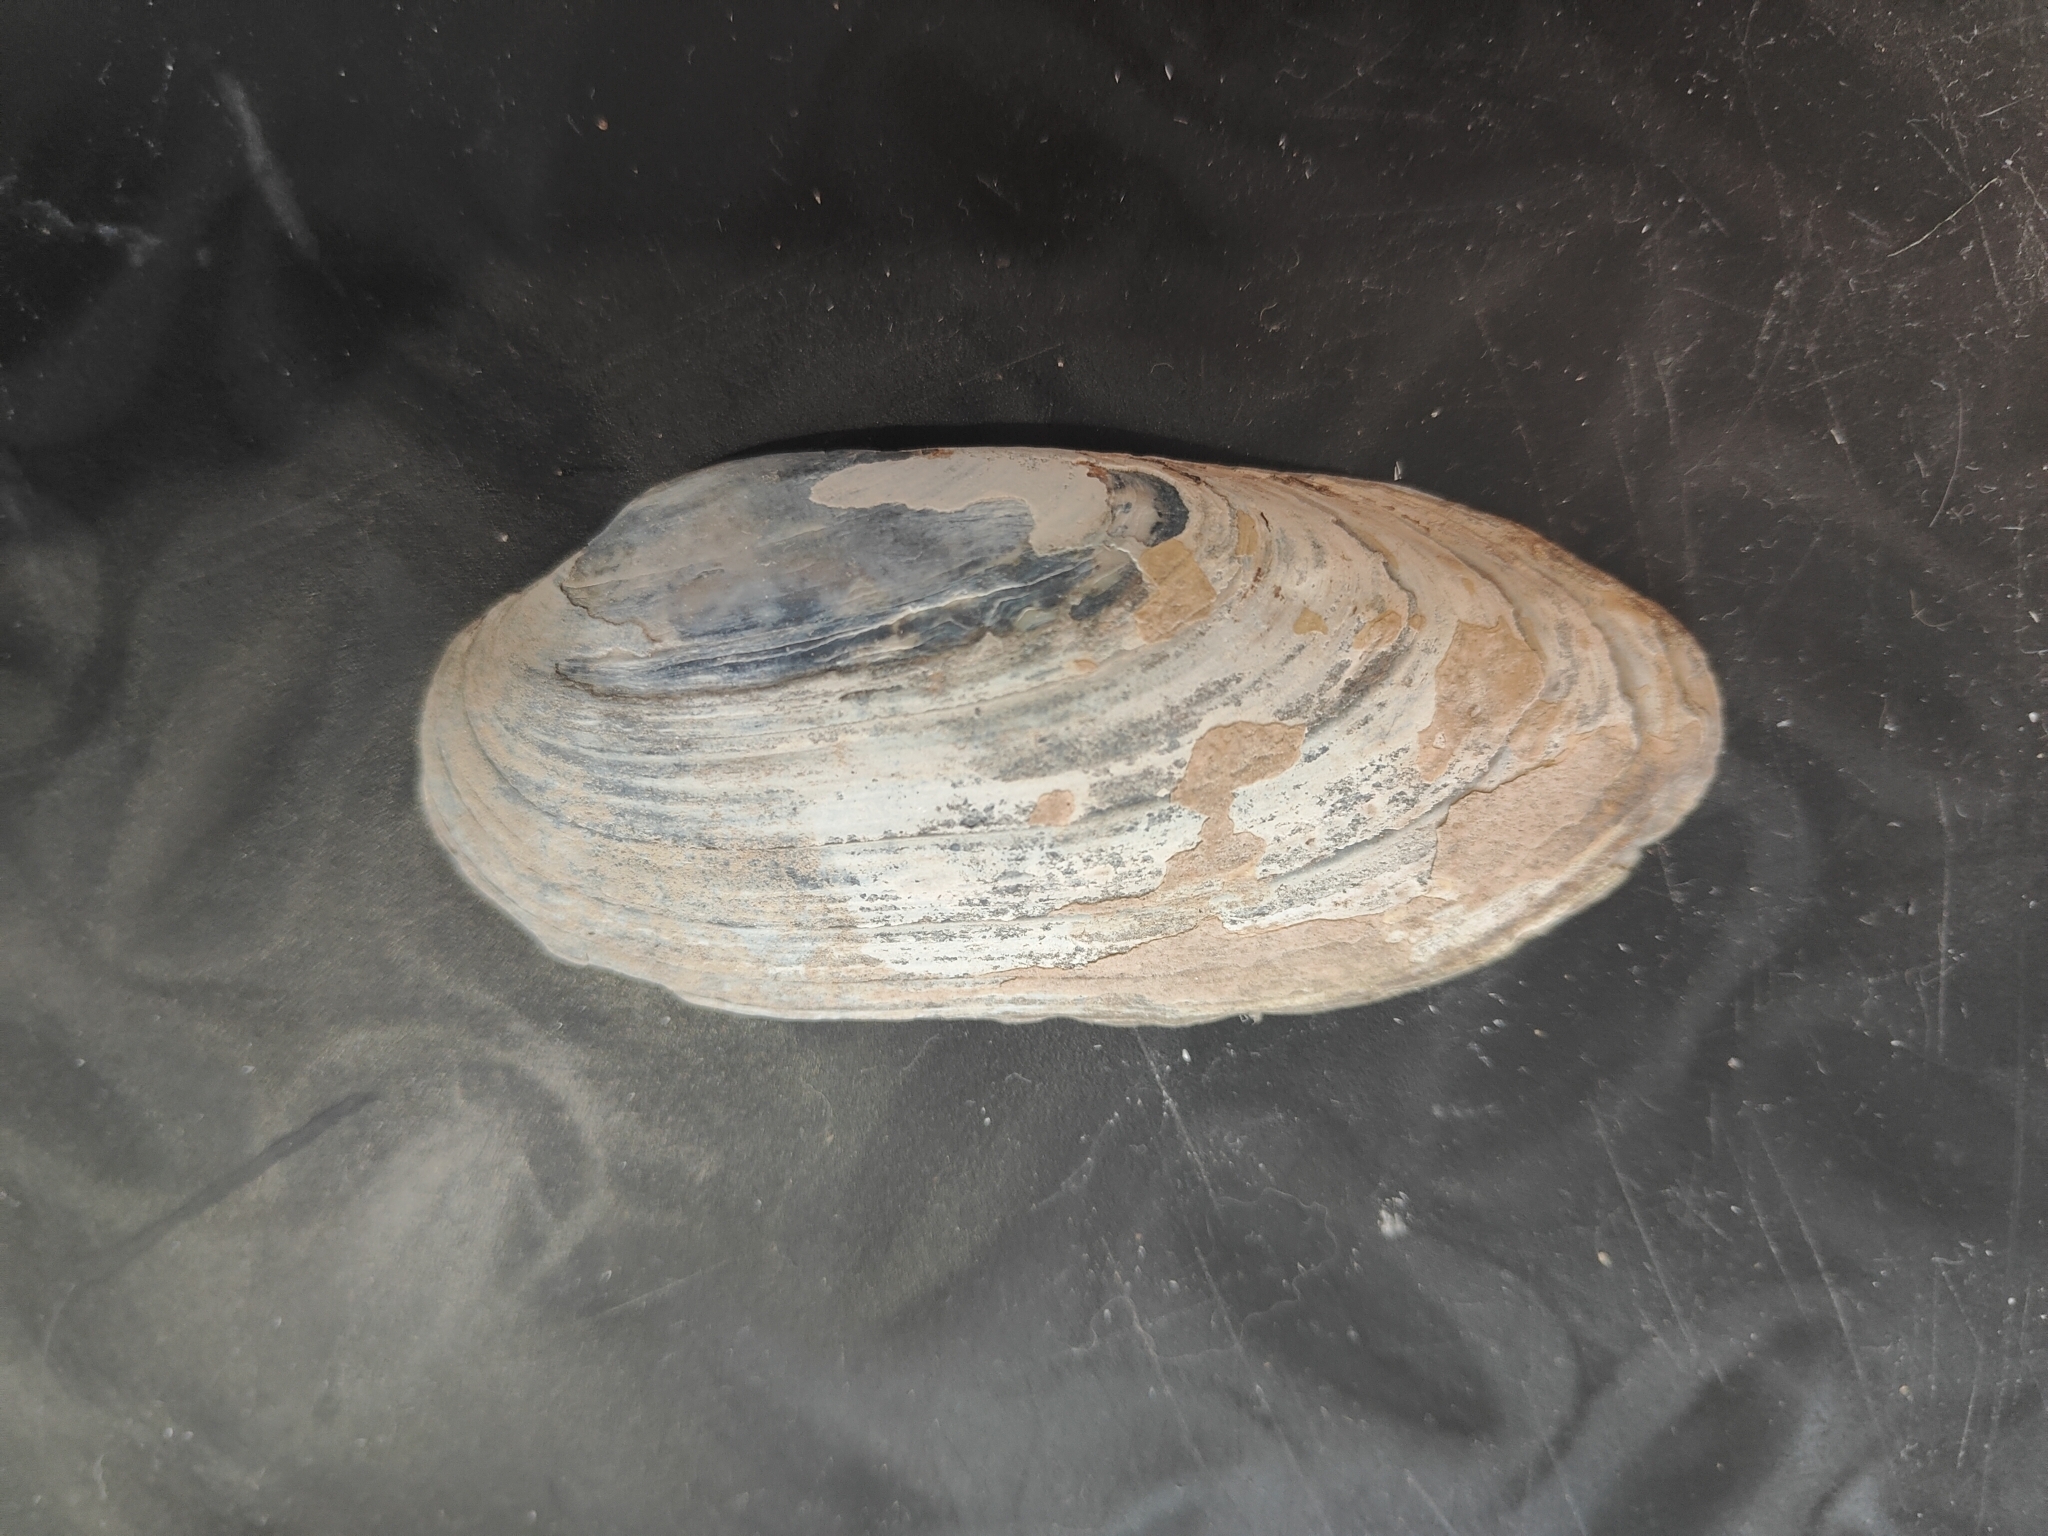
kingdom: Animalia
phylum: Mollusca
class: Bivalvia
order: Unionida
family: Unionidae
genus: Ligumia
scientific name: Ligumia recta
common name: Black sandshell
